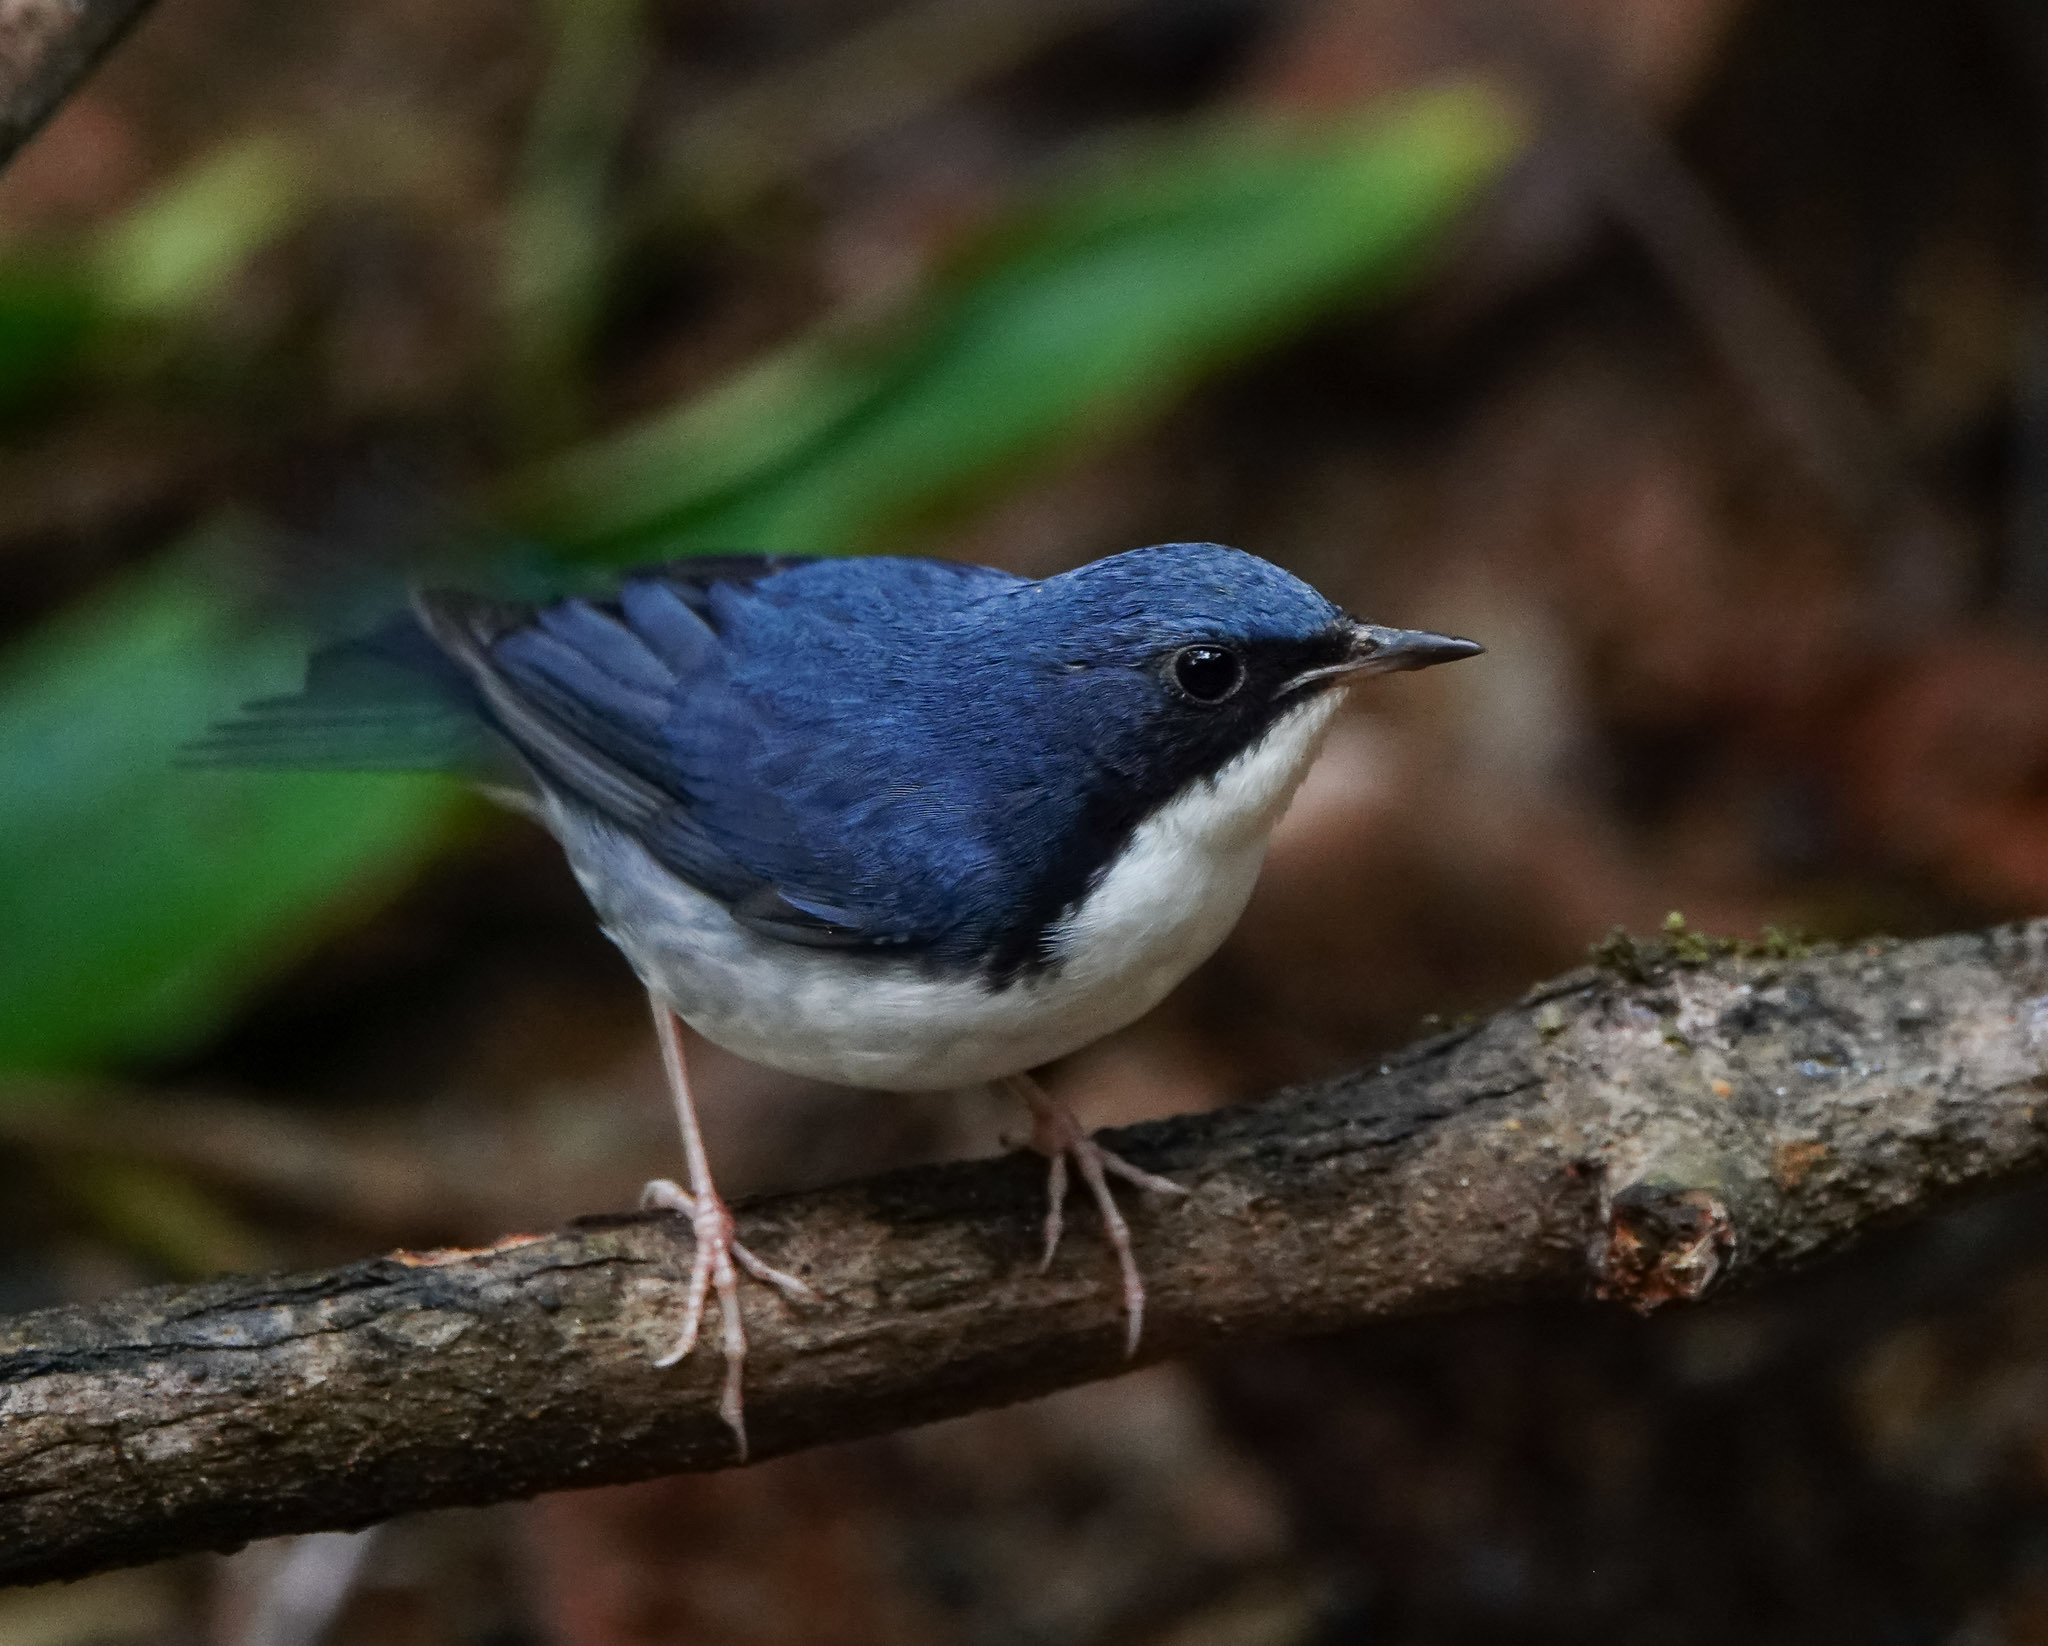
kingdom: Animalia
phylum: Chordata
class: Aves
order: Passeriformes
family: Muscicapidae
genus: Luscinia
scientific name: Luscinia cyane
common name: Siberian blue robin
